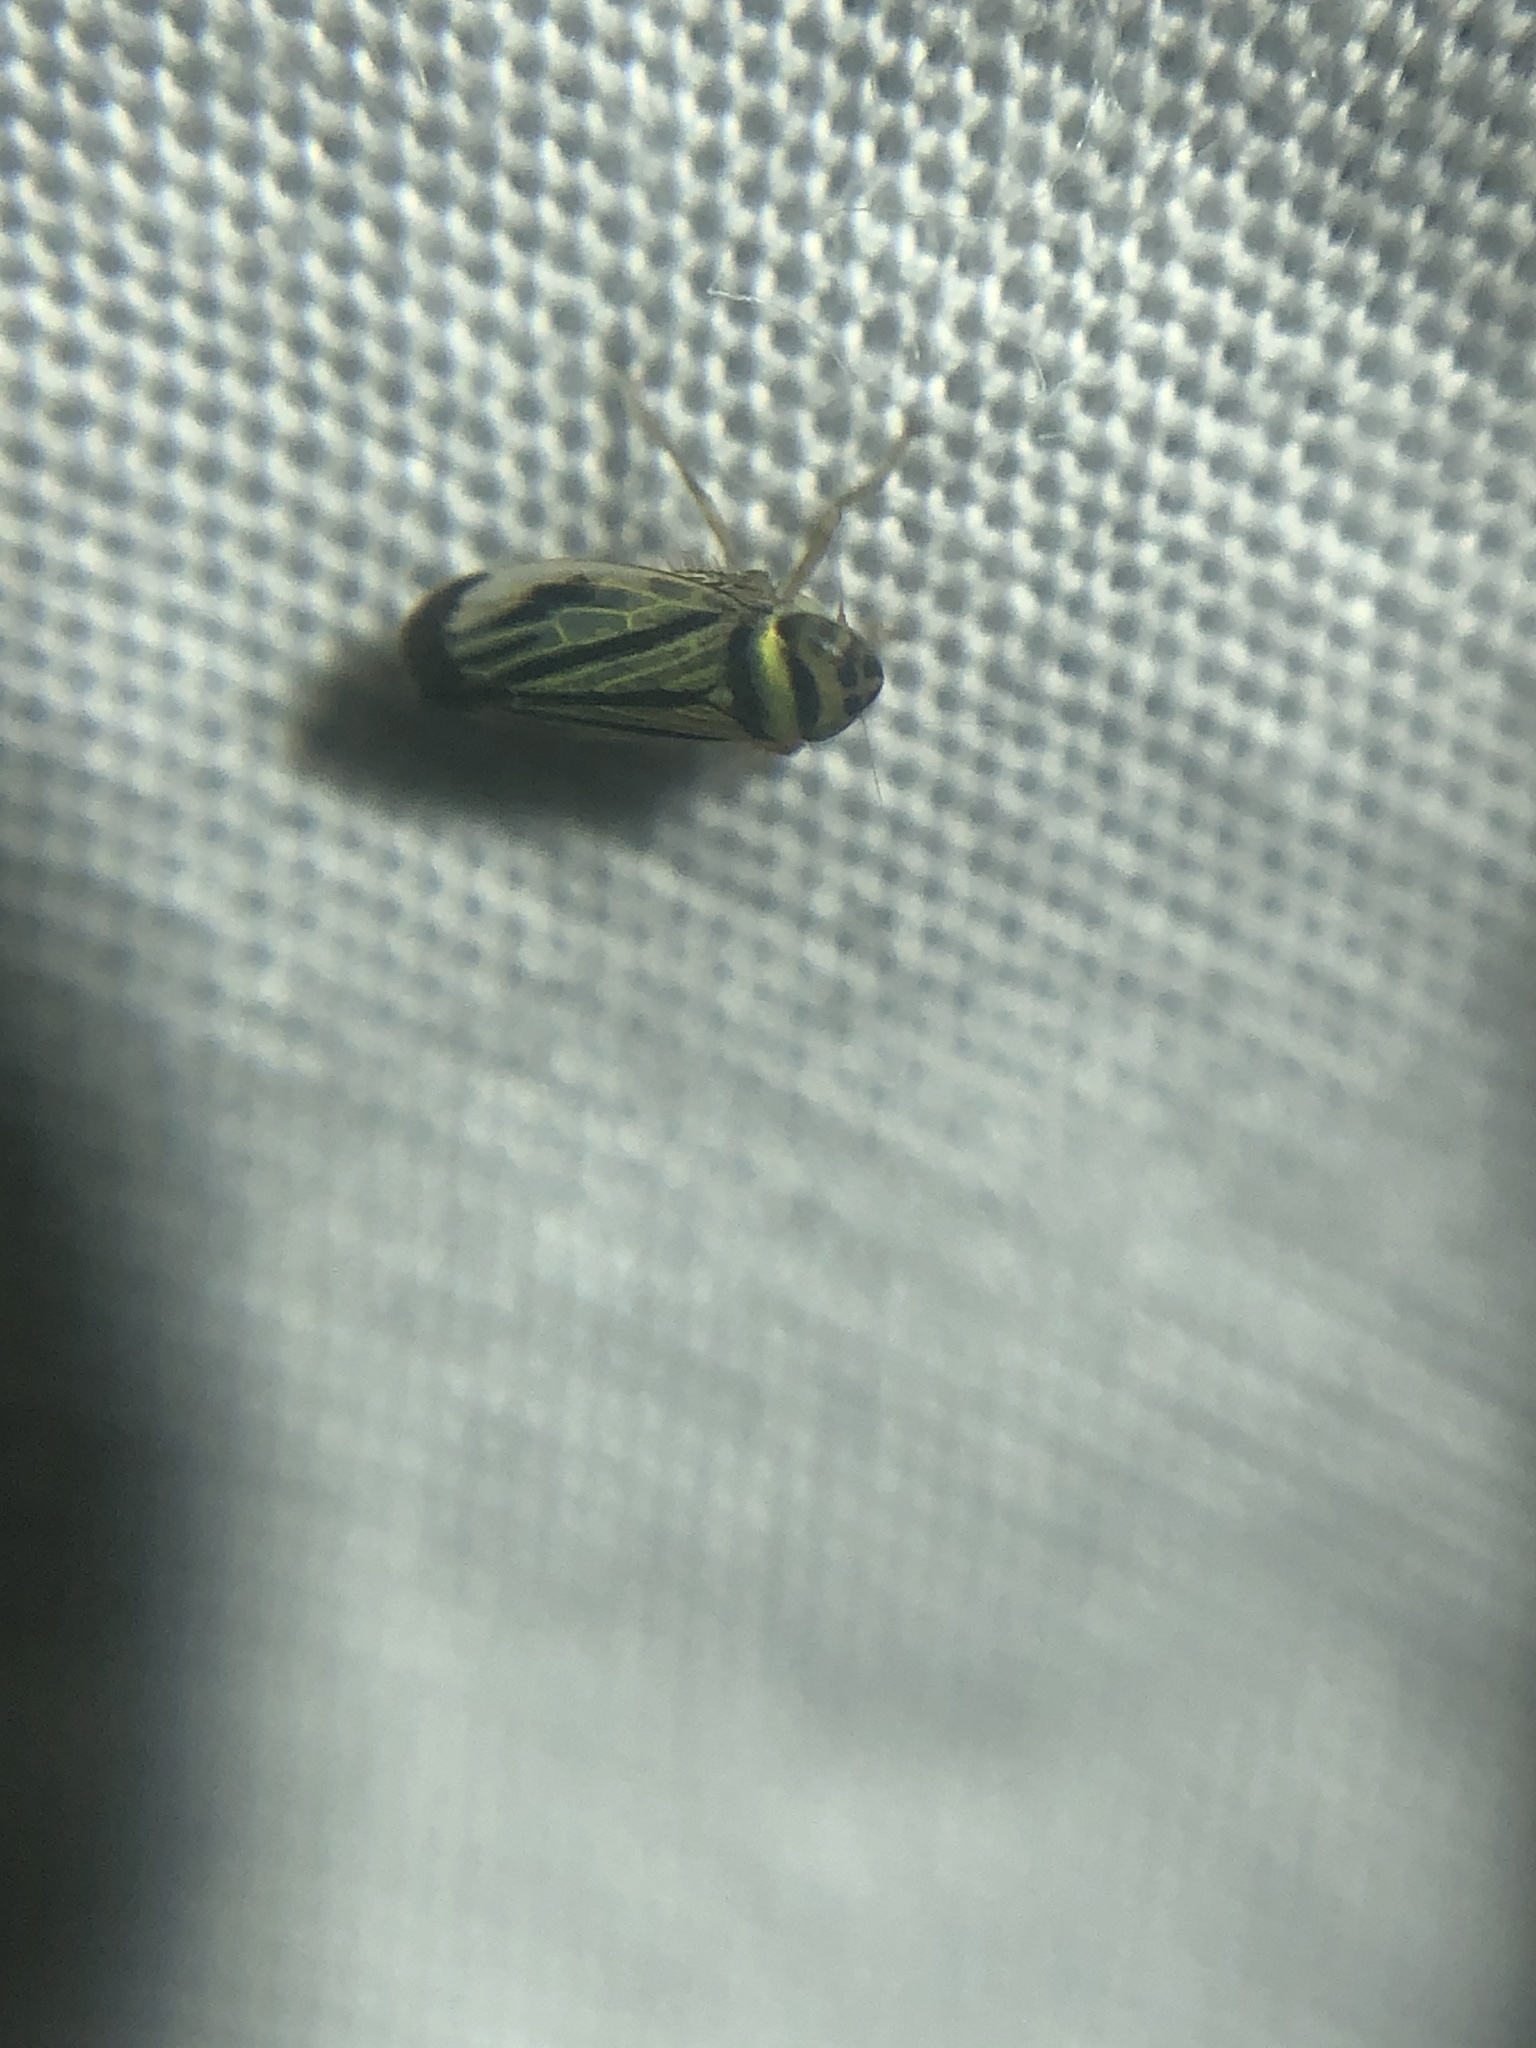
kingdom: Animalia
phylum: Arthropoda
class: Insecta
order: Hemiptera
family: Cicadellidae
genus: Stirellus
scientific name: Stirellus bicolor
